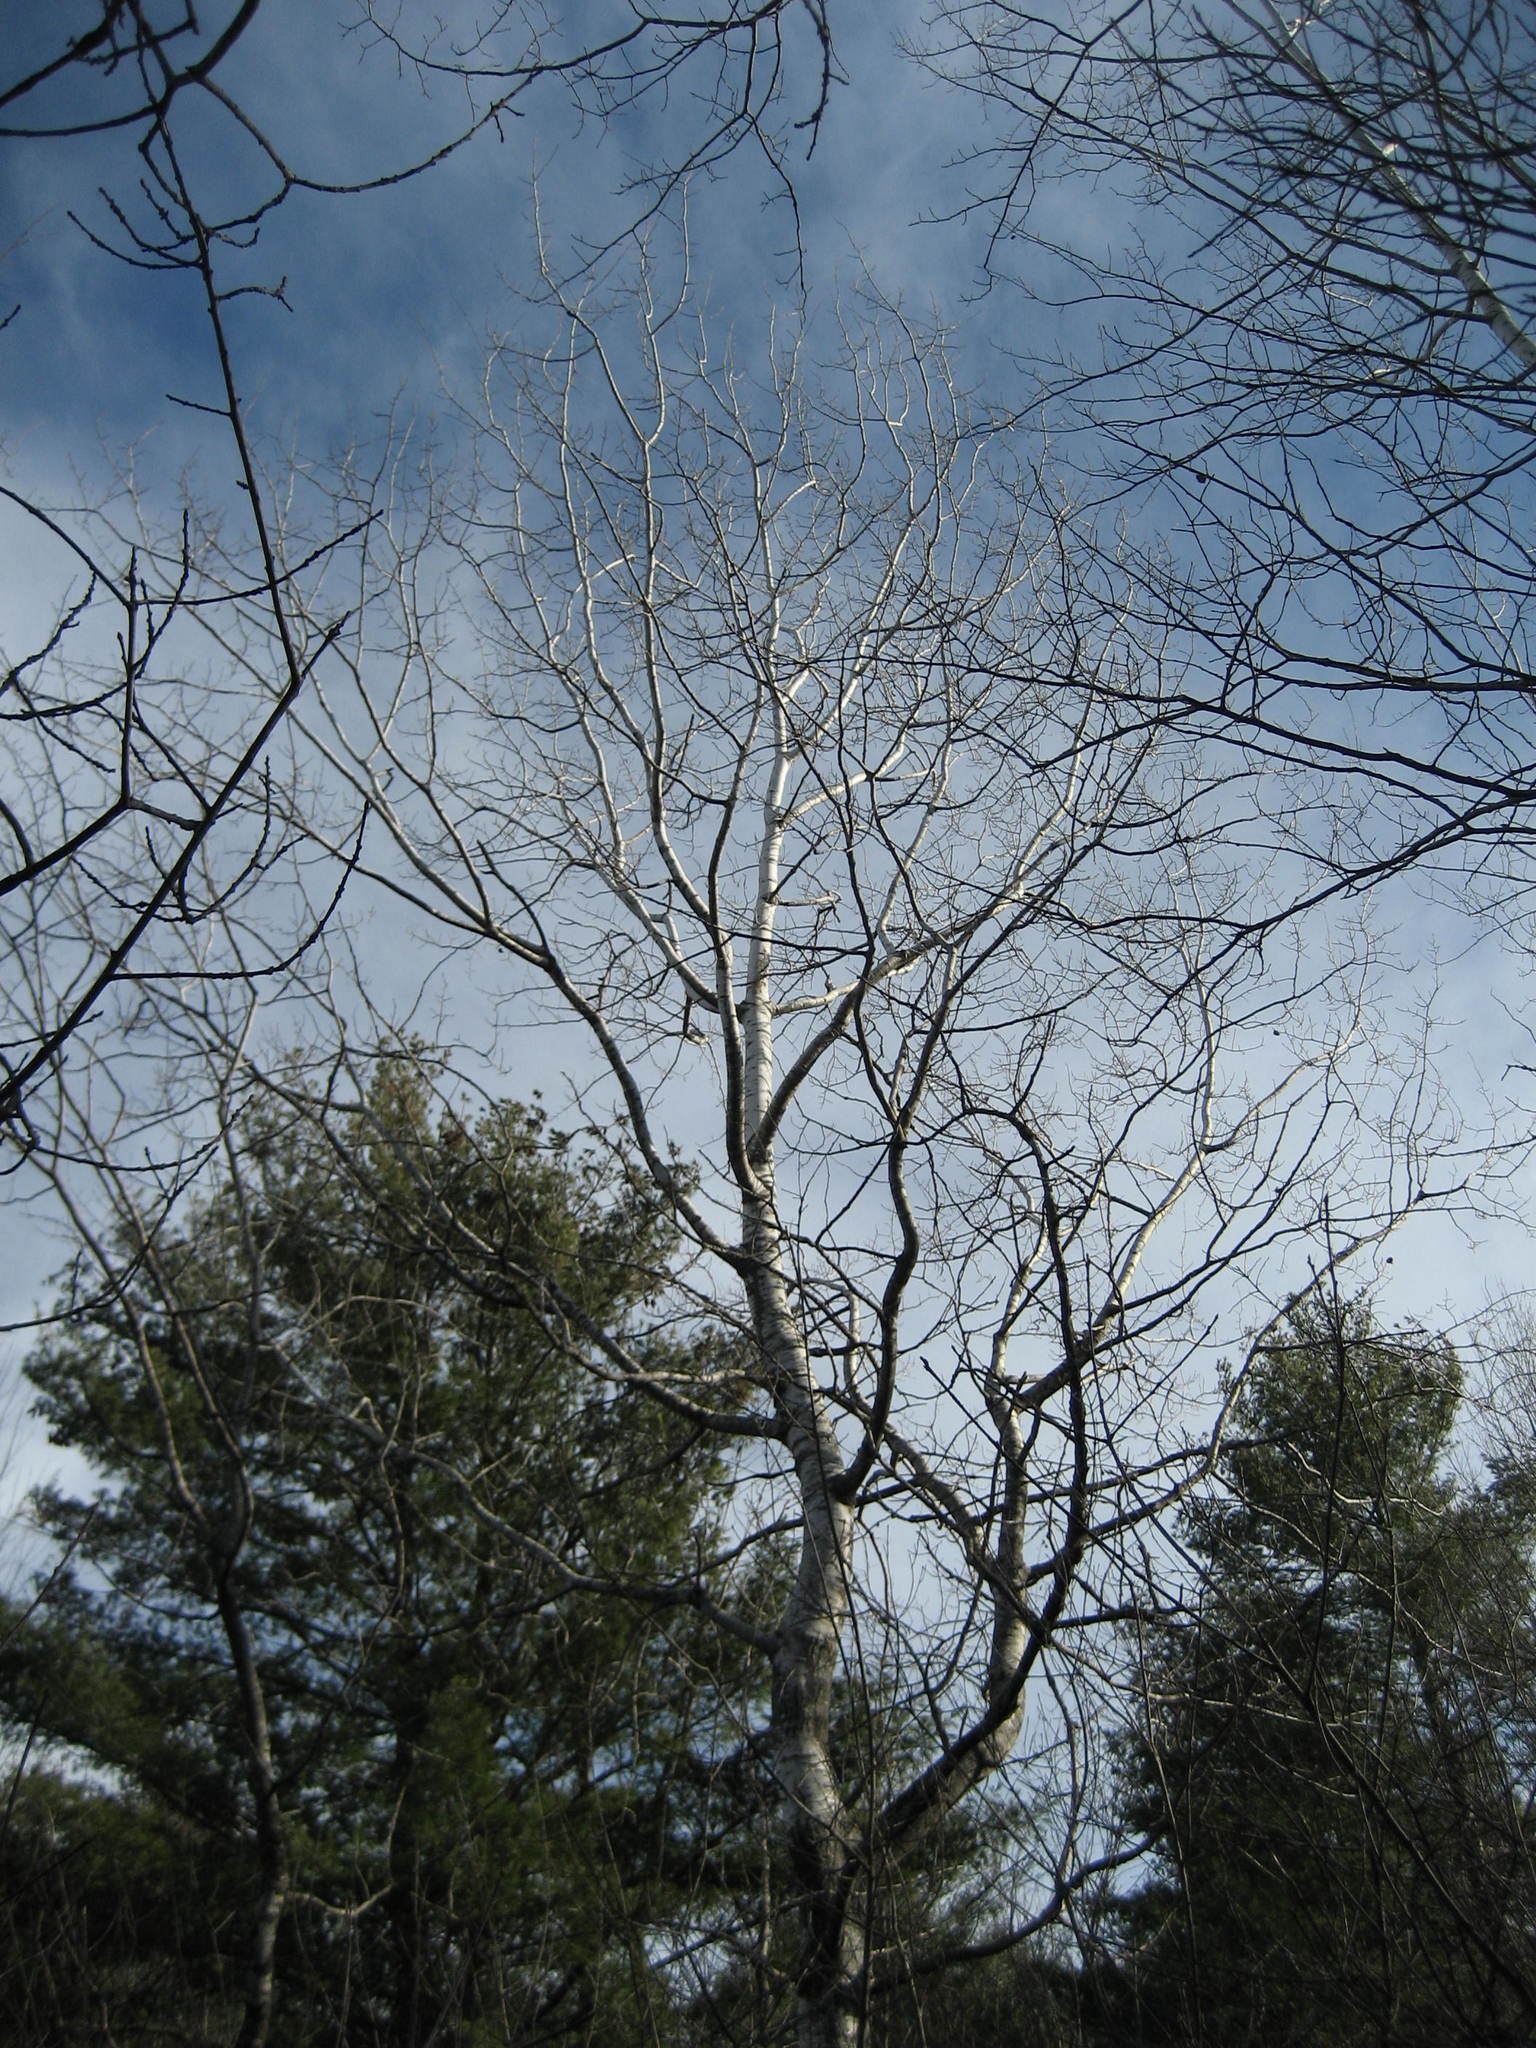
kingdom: Plantae
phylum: Tracheophyta
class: Magnoliopsida
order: Malpighiales
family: Salicaceae
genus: Populus
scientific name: Populus tremuloides
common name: Quaking aspen
